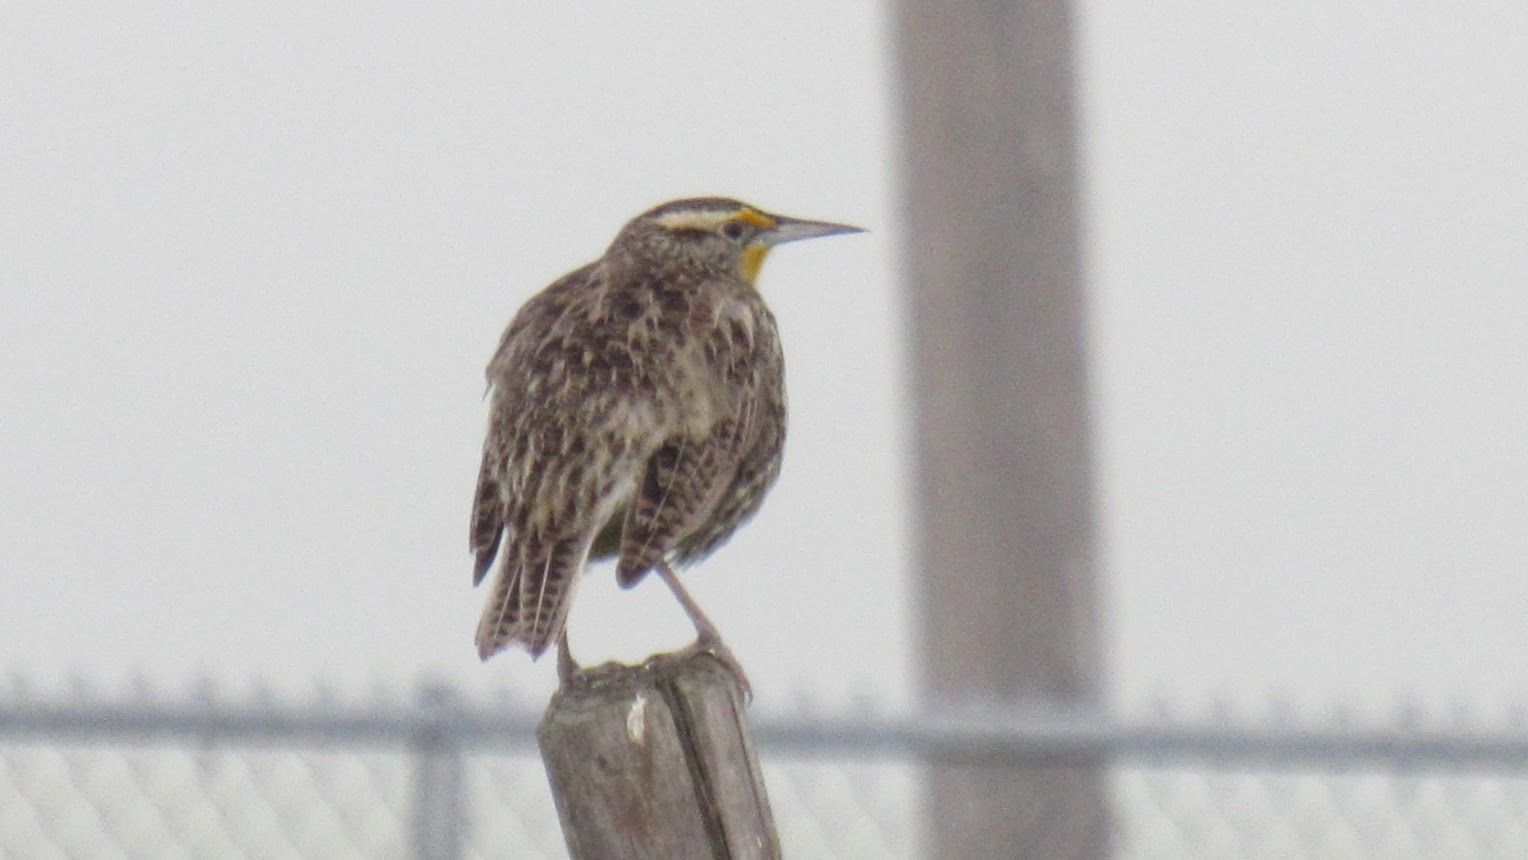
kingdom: Animalia
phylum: Chordata
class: Aves
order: Passeriformes
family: Icteridae
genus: Sturnella
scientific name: Sturnella neglecta
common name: Western meadowlark
